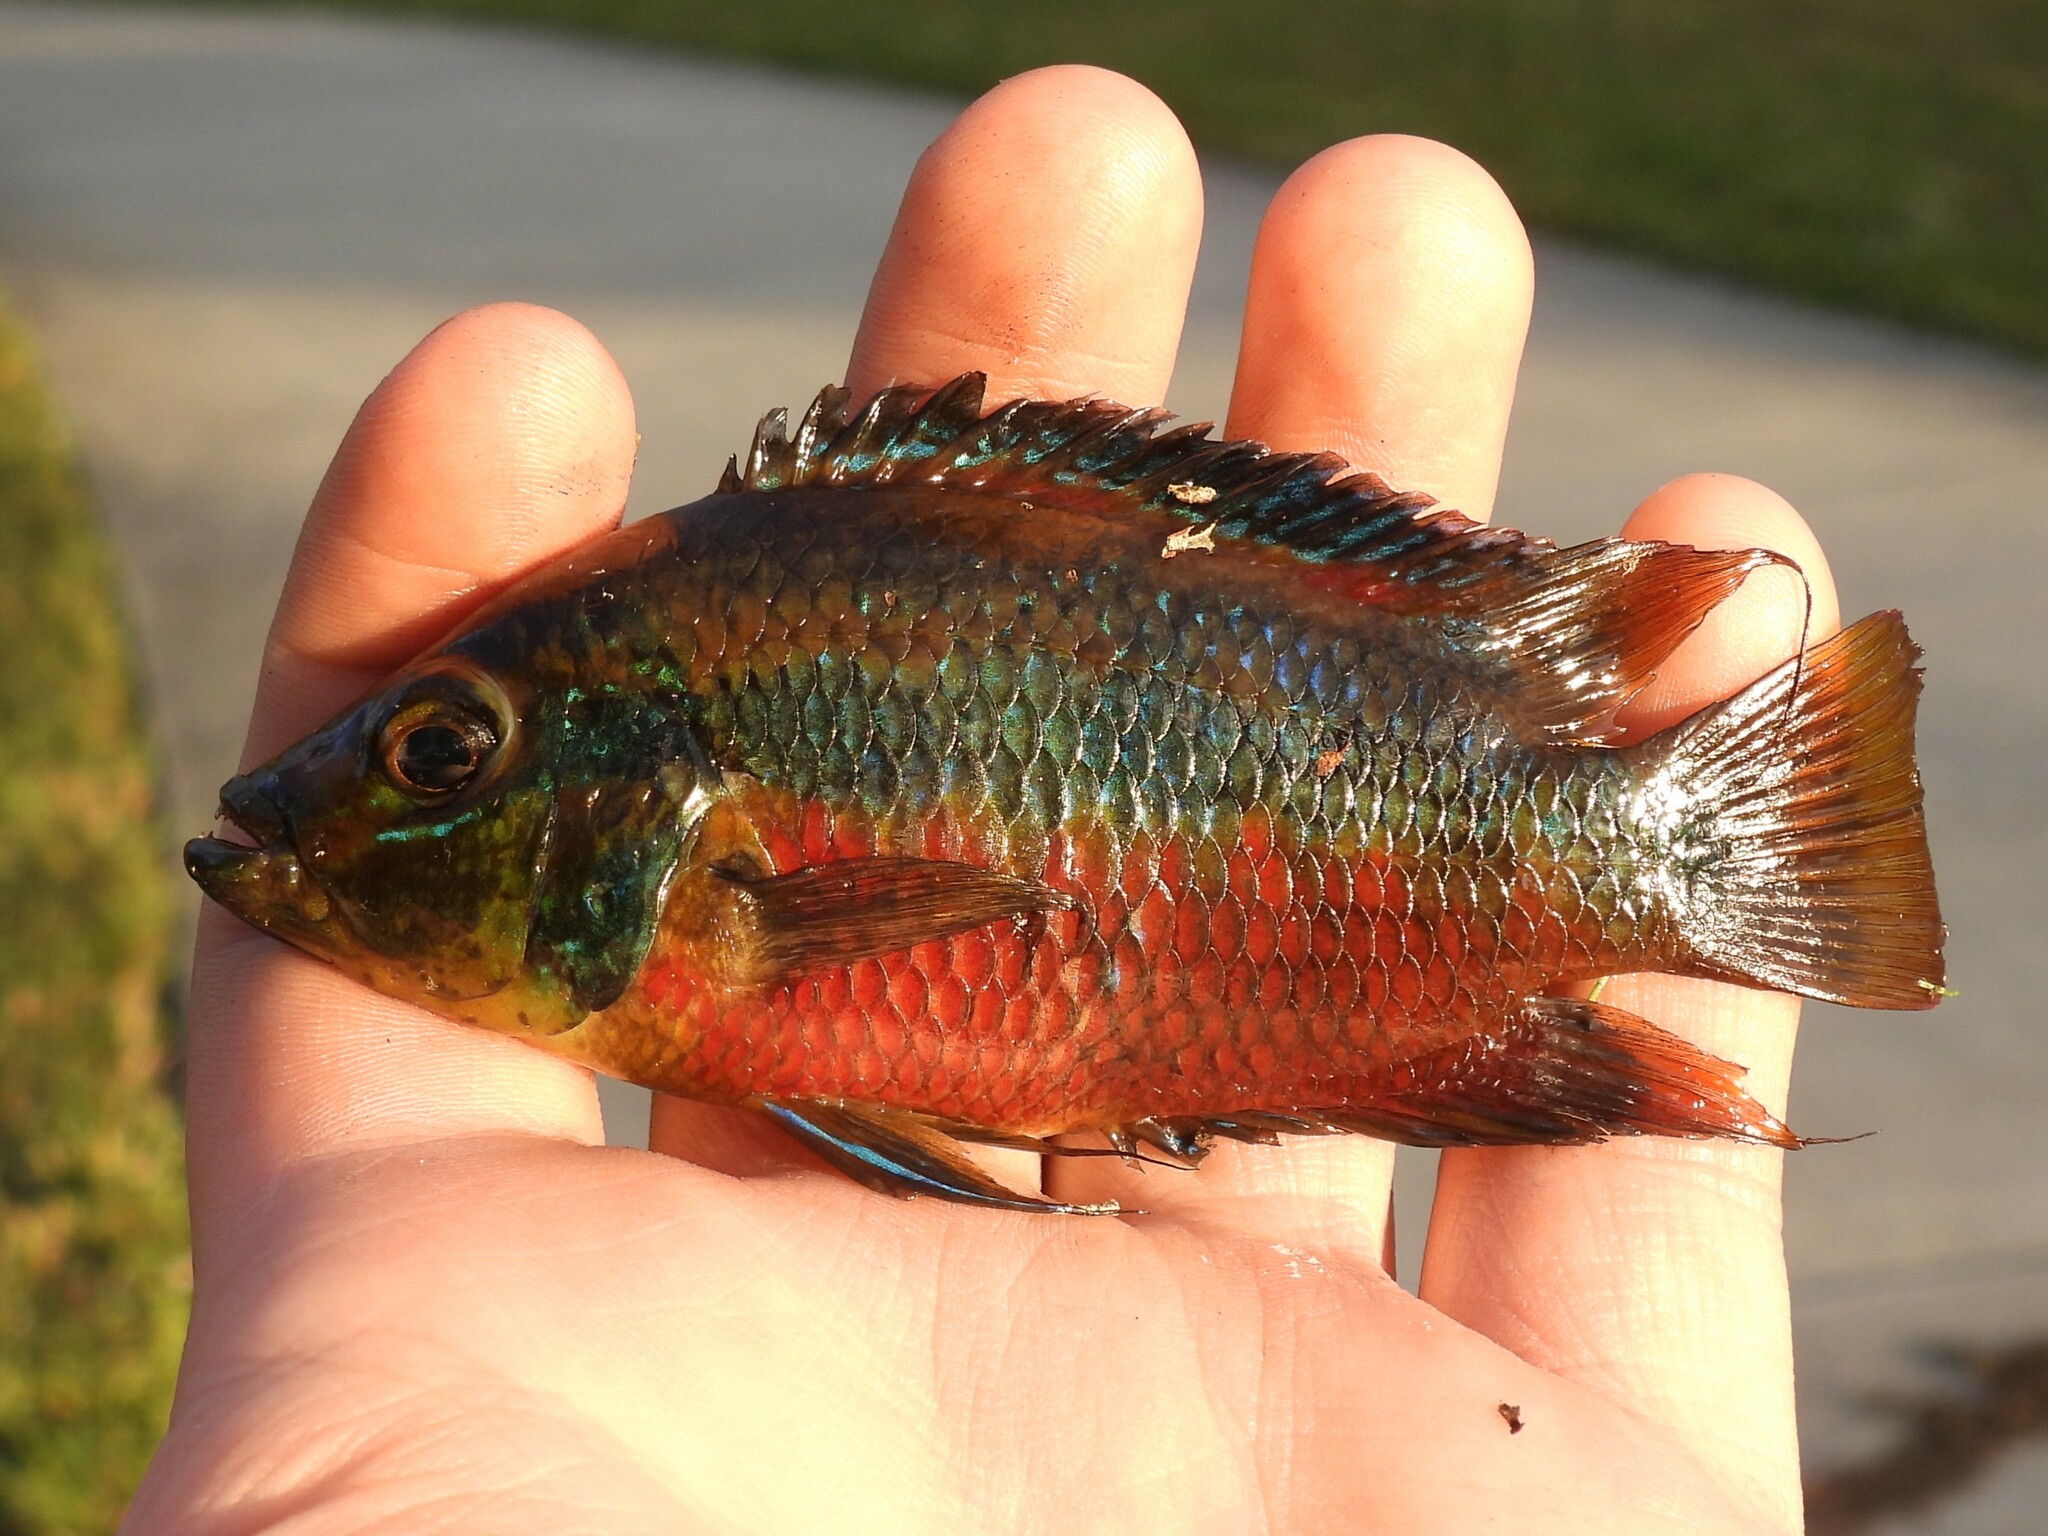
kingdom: Animalia
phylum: Chordata
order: Perciformes
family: Cichlidae
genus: Trichromis
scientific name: Trichromis salvini
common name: Yellow belly cichlid
